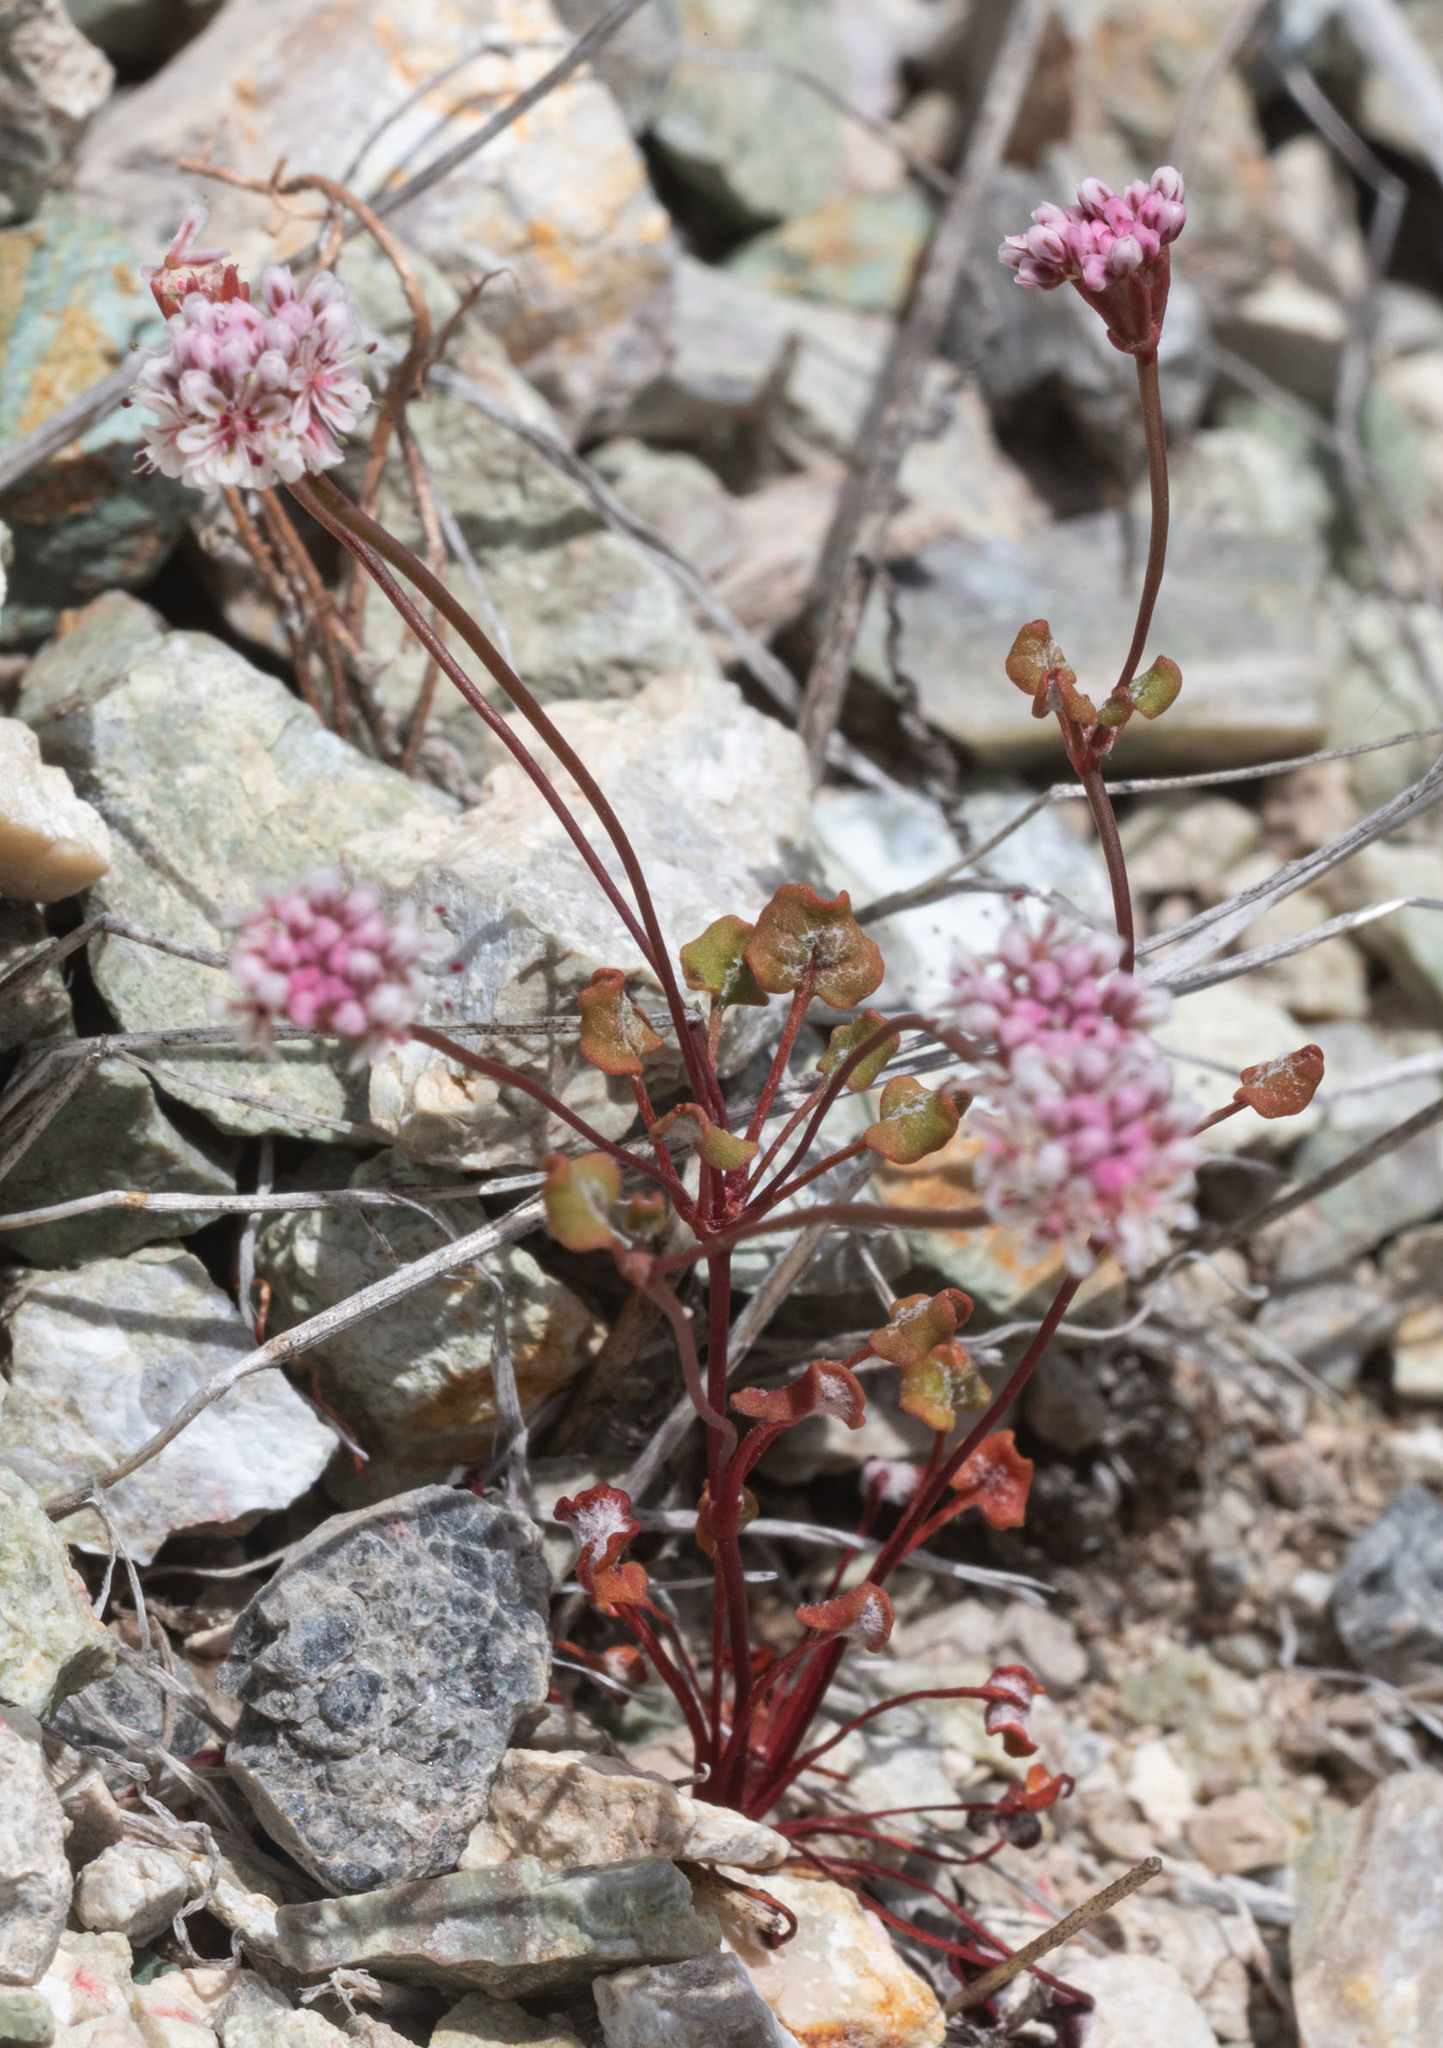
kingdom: Plantae
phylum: Tracheophyta
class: Magnoliopsida
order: Caryophyllales
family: Polygonaceae
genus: Eriogonum
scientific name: Eriogonum nortonii
